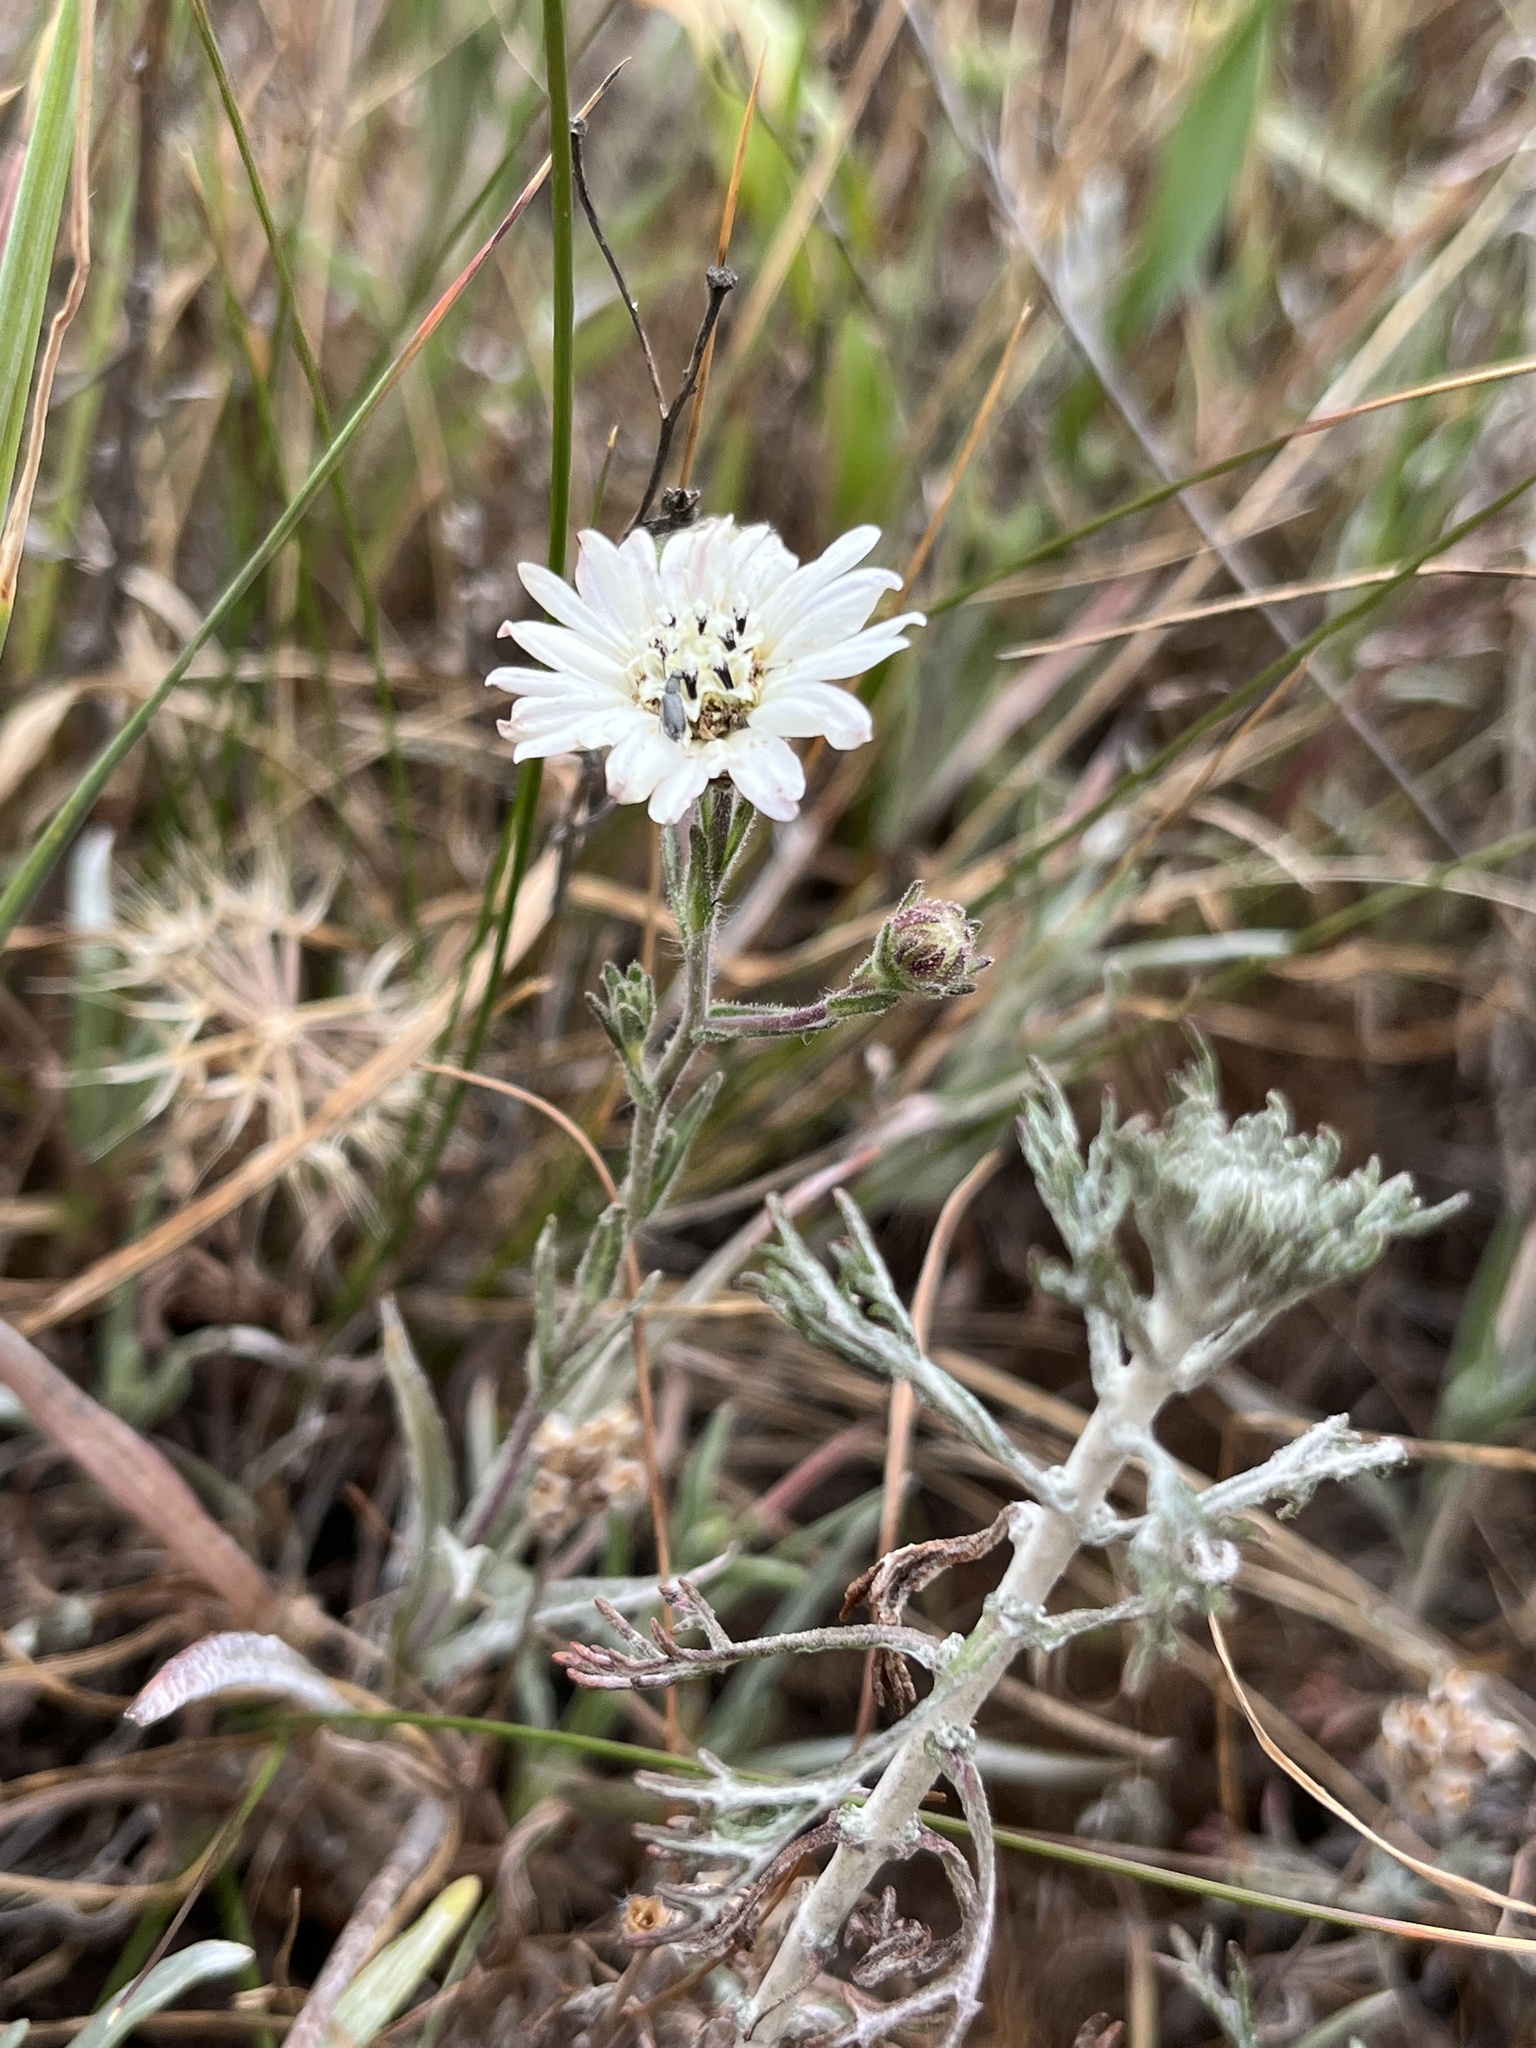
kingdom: Plantae
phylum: Tracheophyta
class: Magnoliopsida
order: Asterales
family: Asteraceae
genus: Hemizonia
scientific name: Hemizonia congesta
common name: Hayfield tarweed
